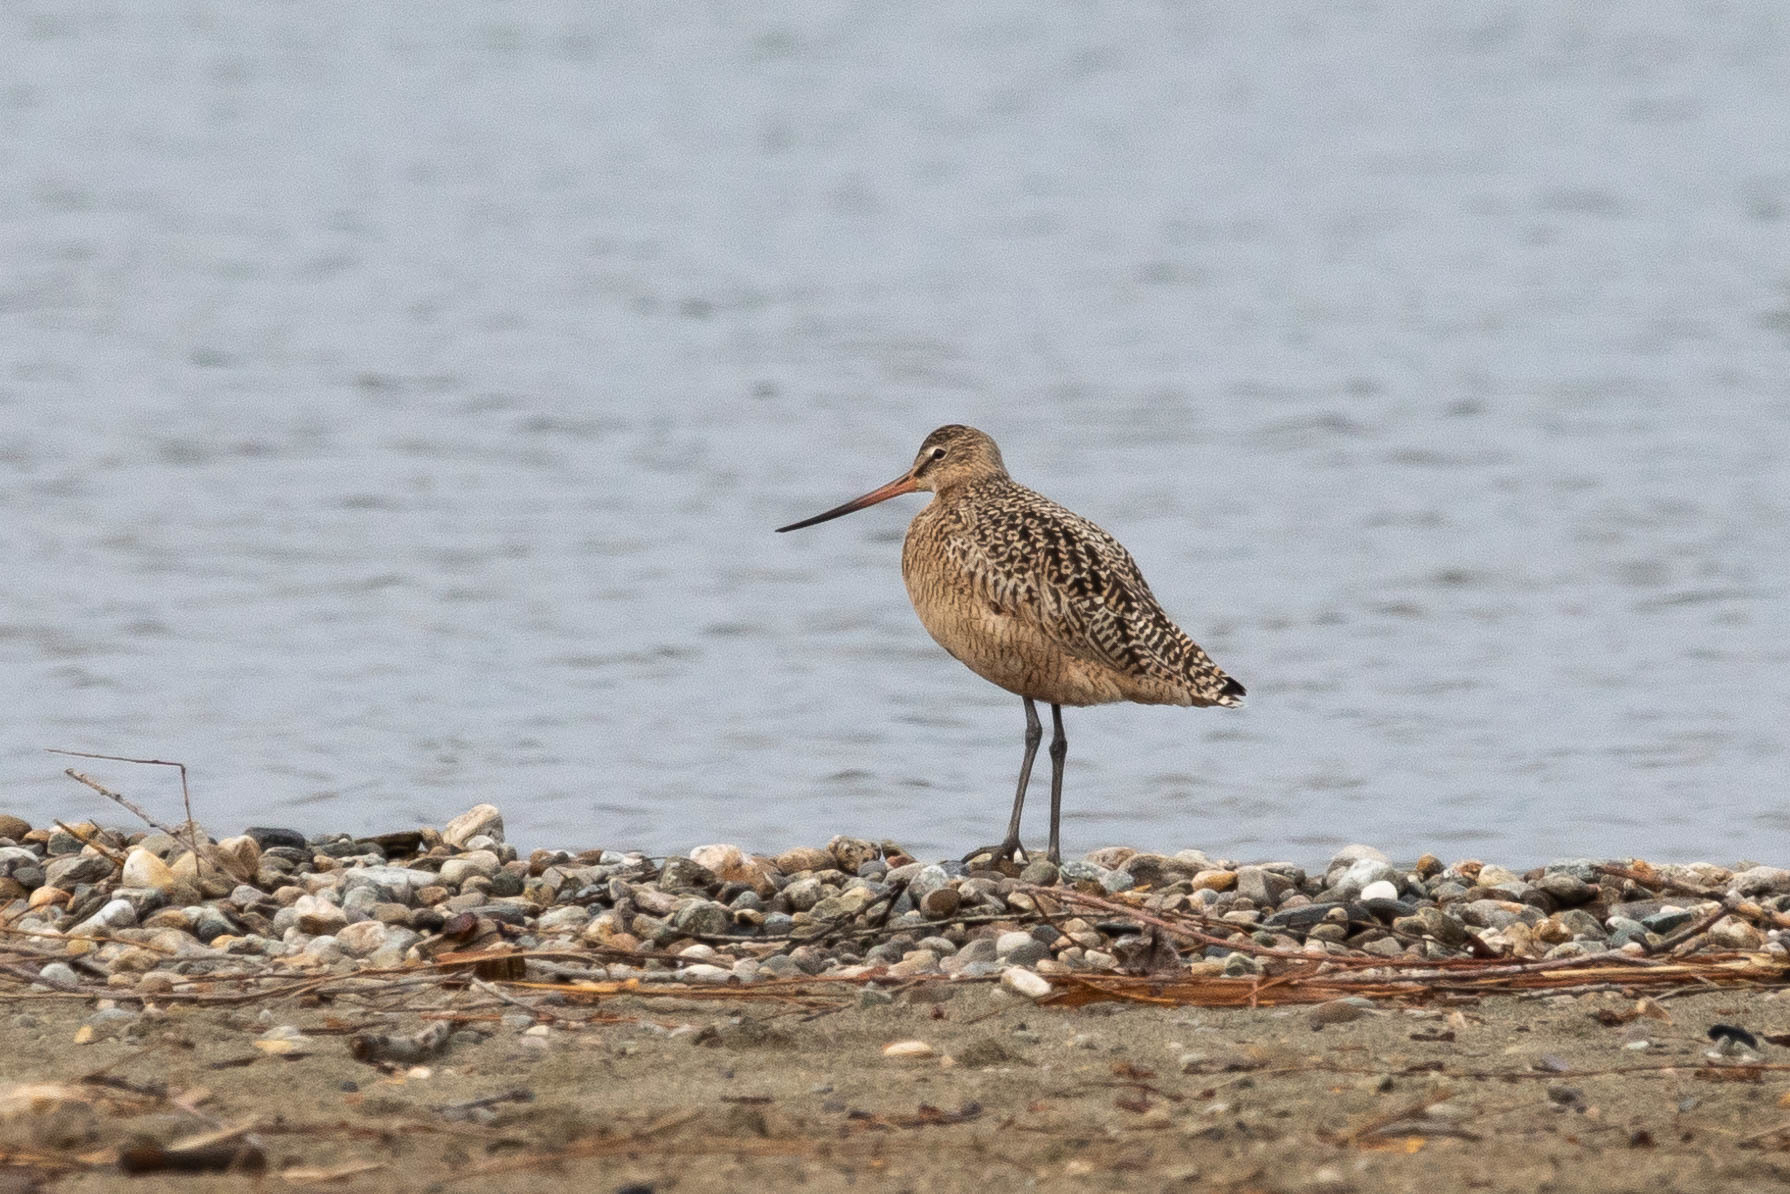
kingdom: Animalia
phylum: Chordata
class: Aves
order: Charadriiformes
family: Scolopacidae
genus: Limosa
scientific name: Limosa fedoa
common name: Marbled godwit
